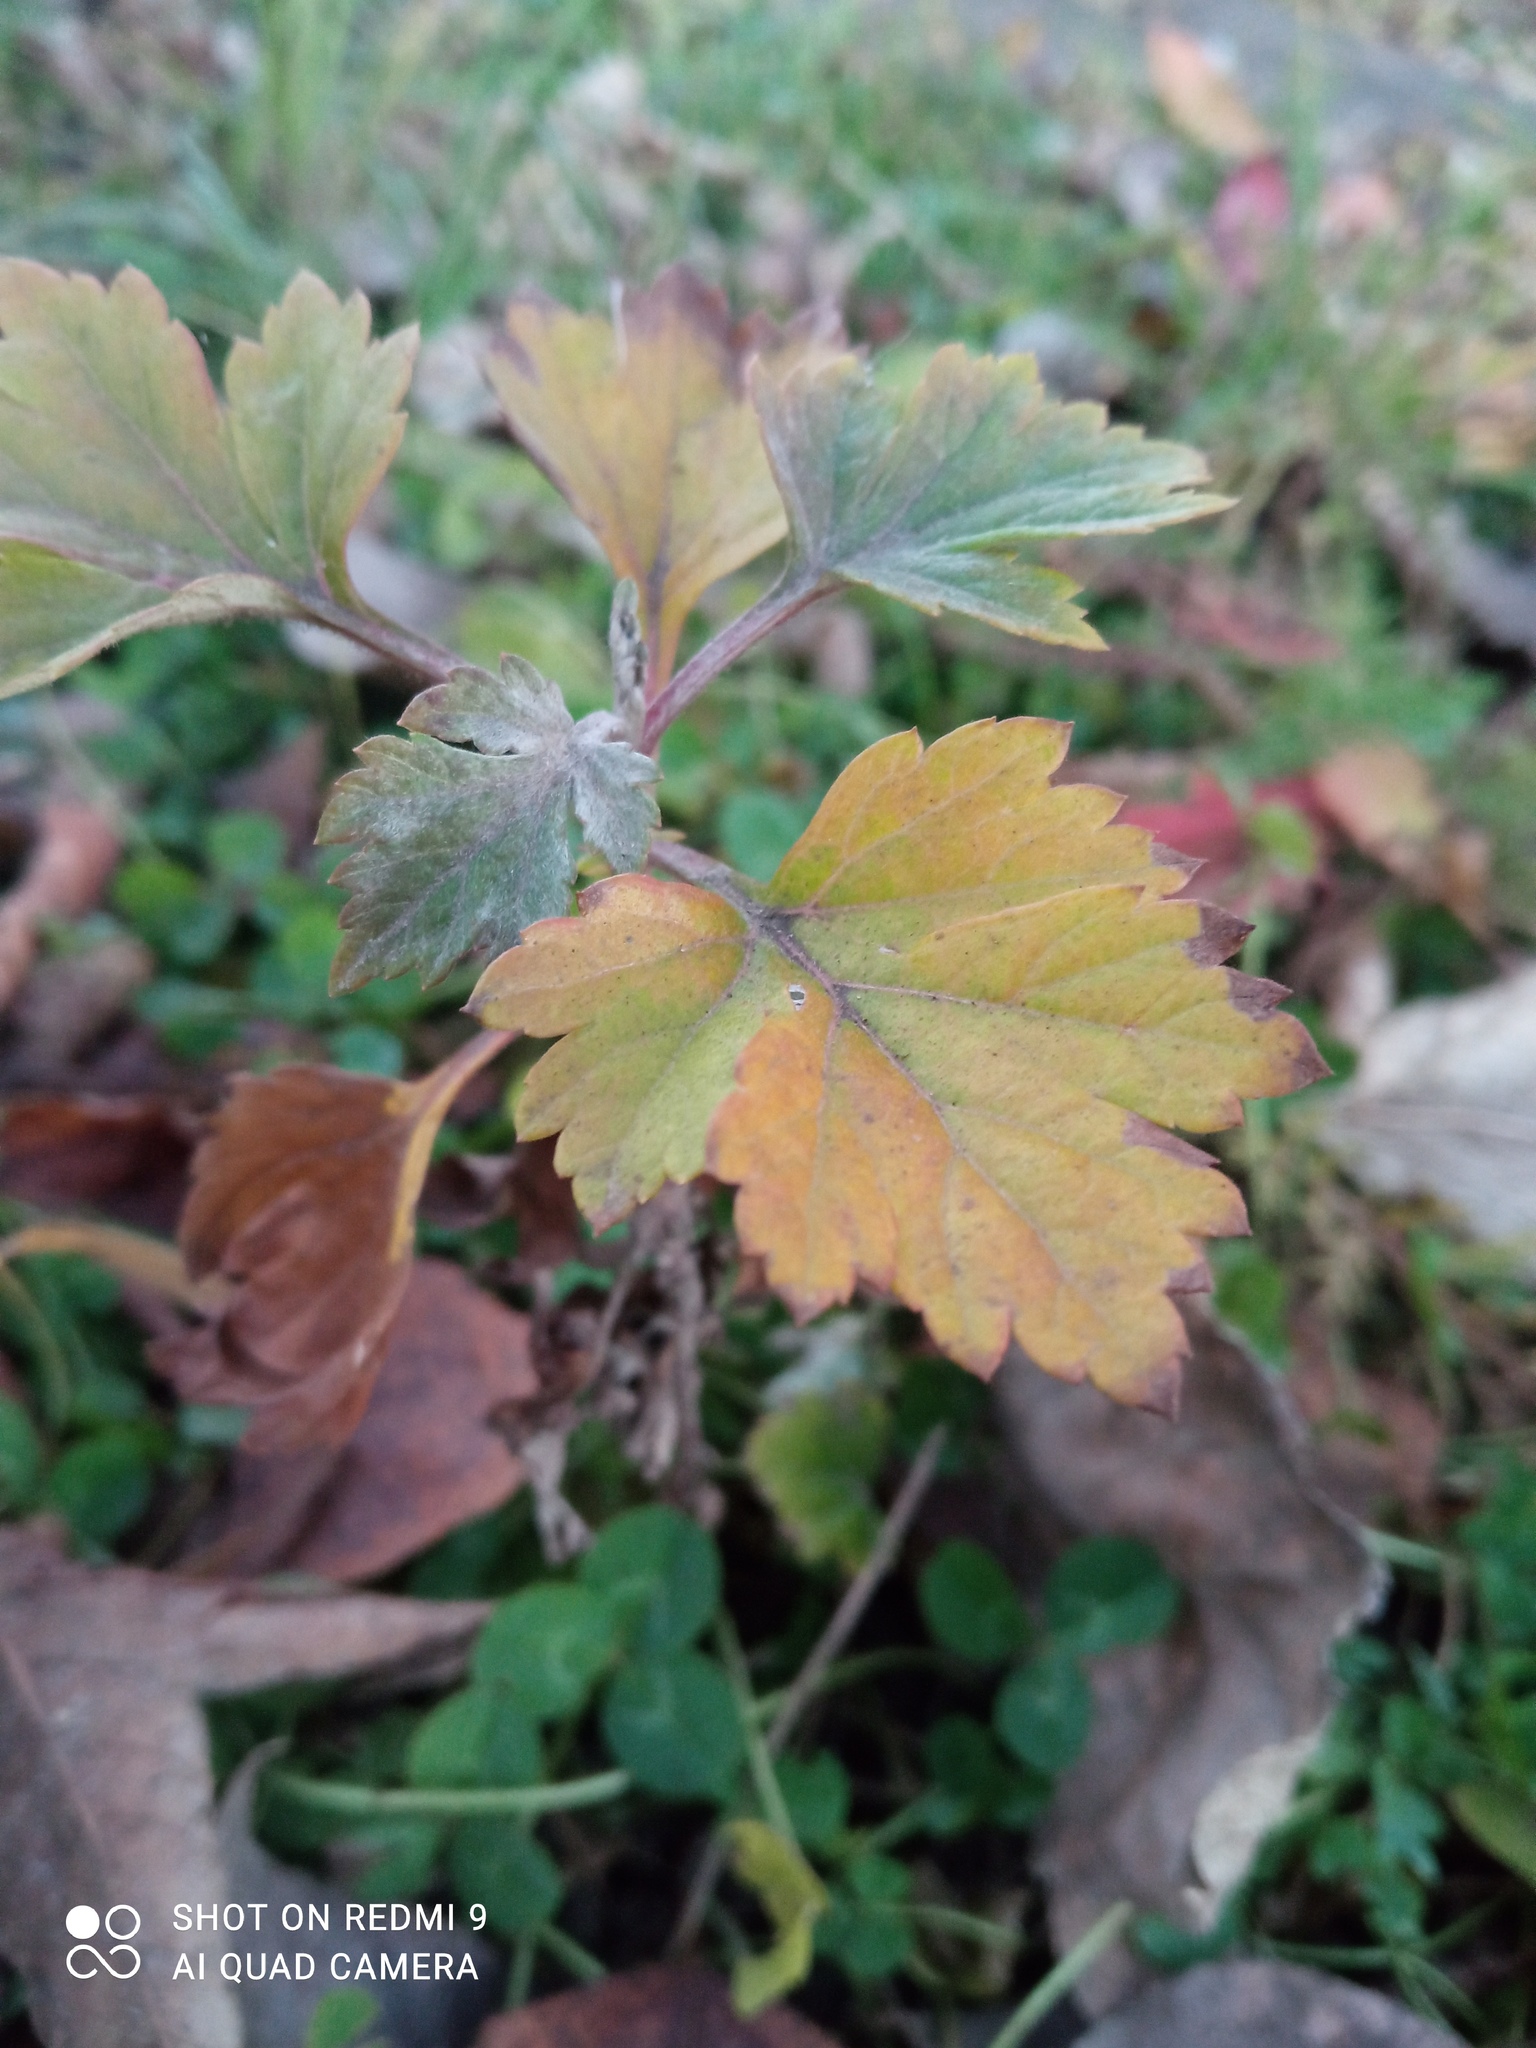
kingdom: Plantae
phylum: Tracheophyta
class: Magnoliopsida
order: Asterales
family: Asteraceae
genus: Artemisia
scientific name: Artemisia vulgaris
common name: Mugwort
